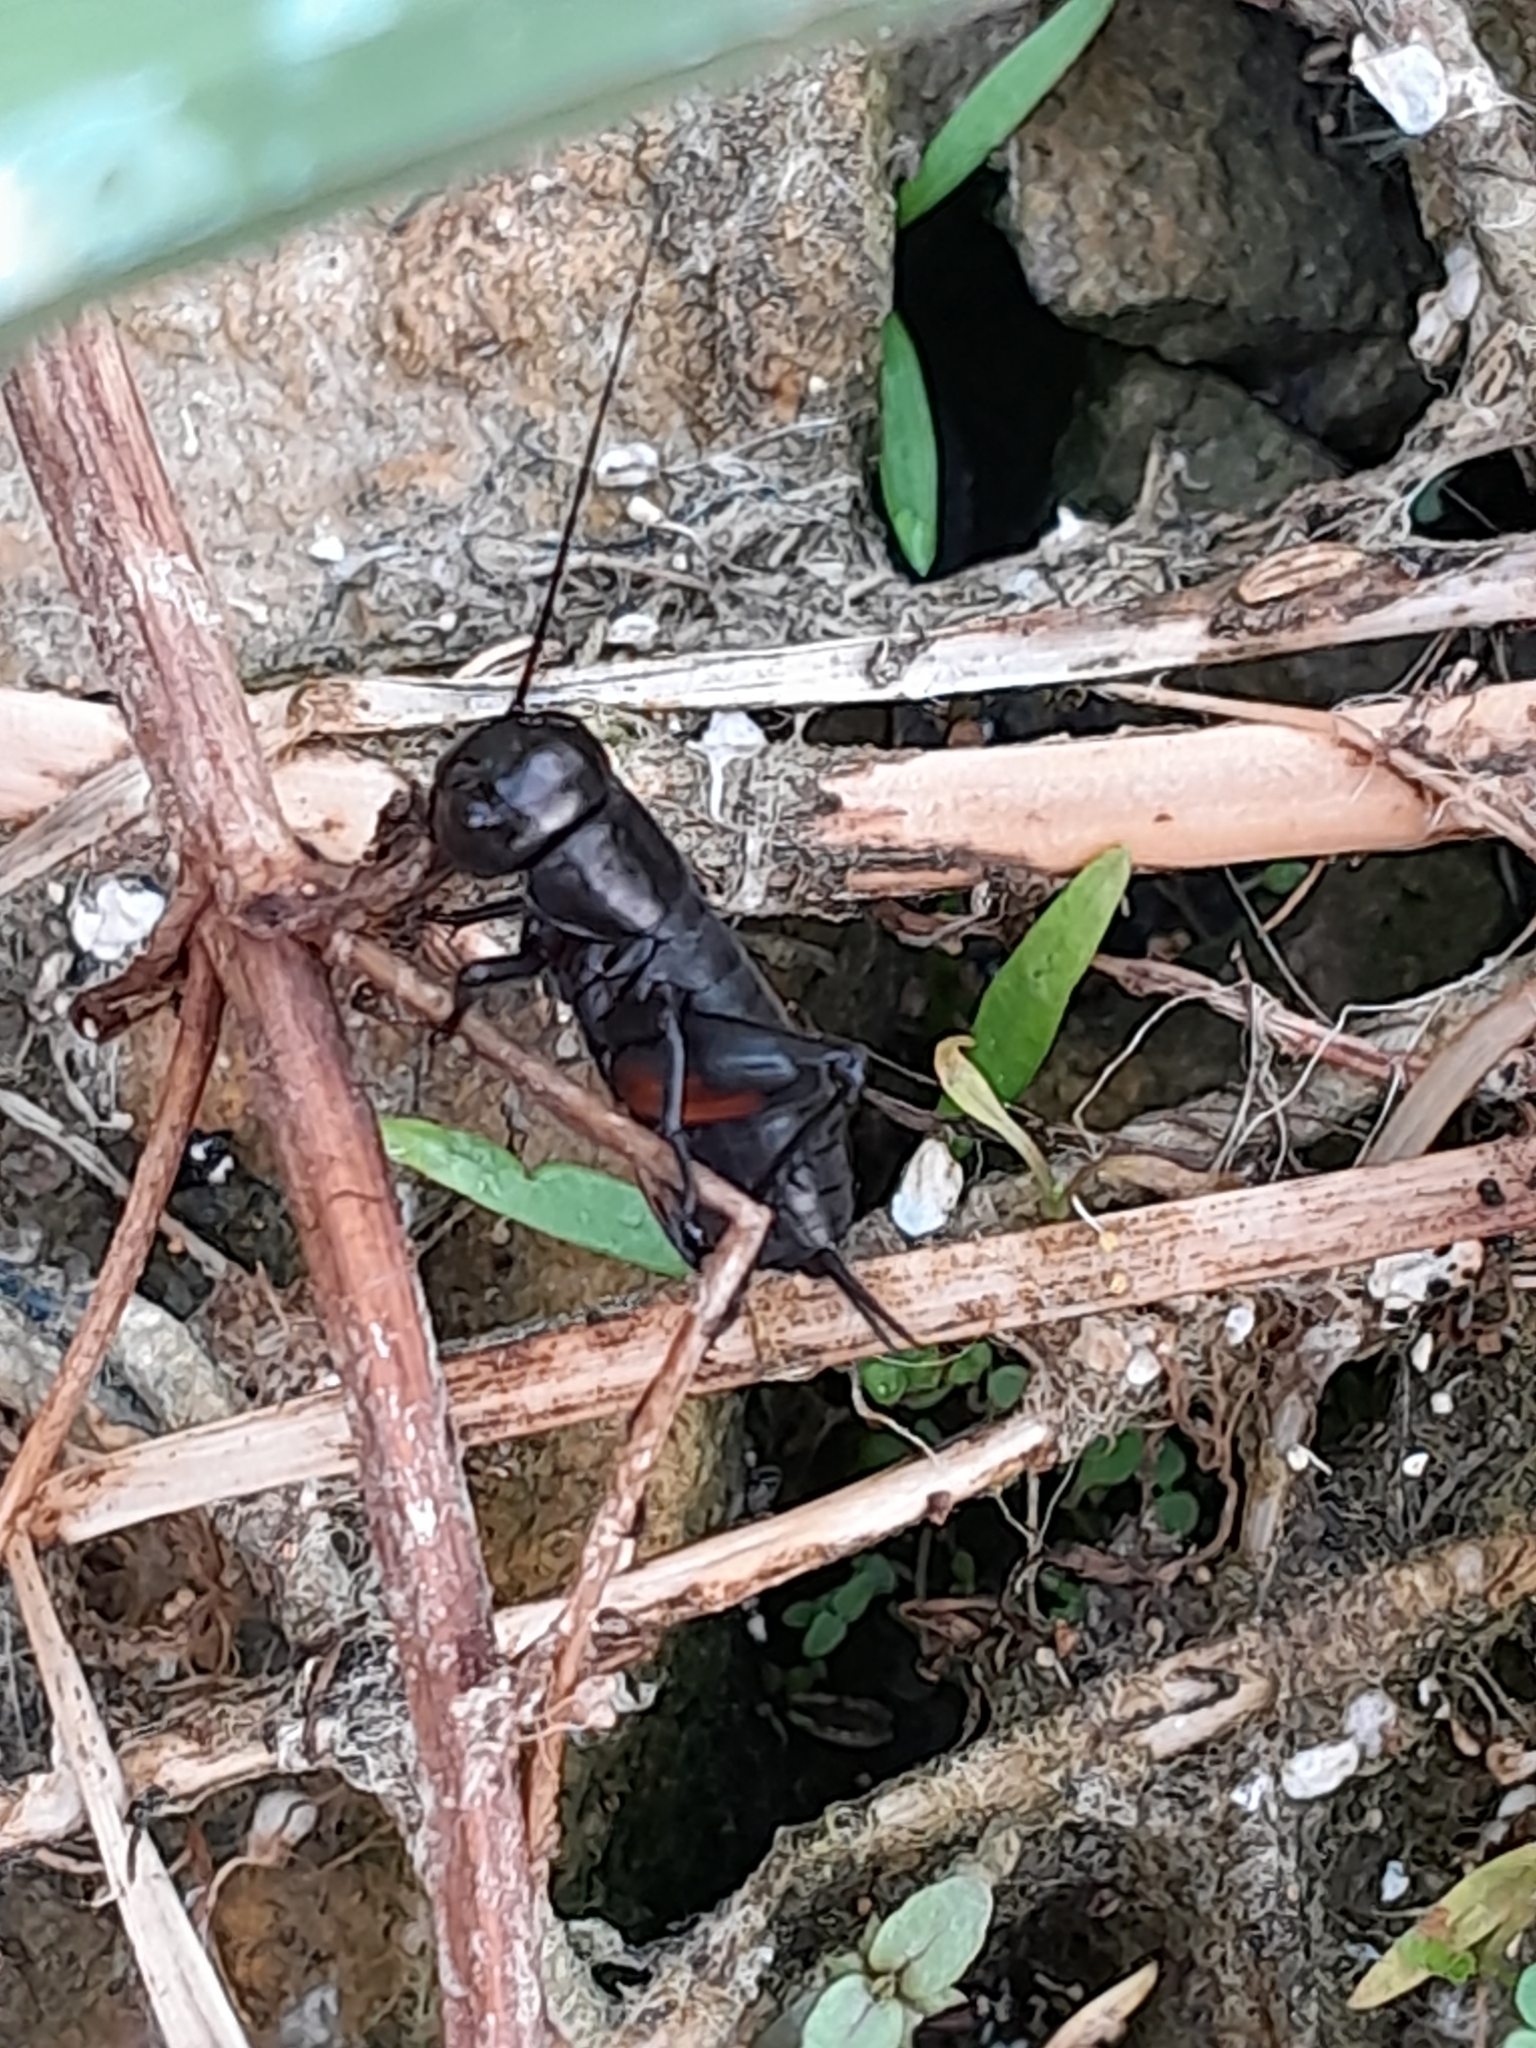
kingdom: Animalia
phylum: Arthropoda
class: Insecta
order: Orthoptera
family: Gryllidae
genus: Gryllus
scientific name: Gryllus campestris
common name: Field cricket
